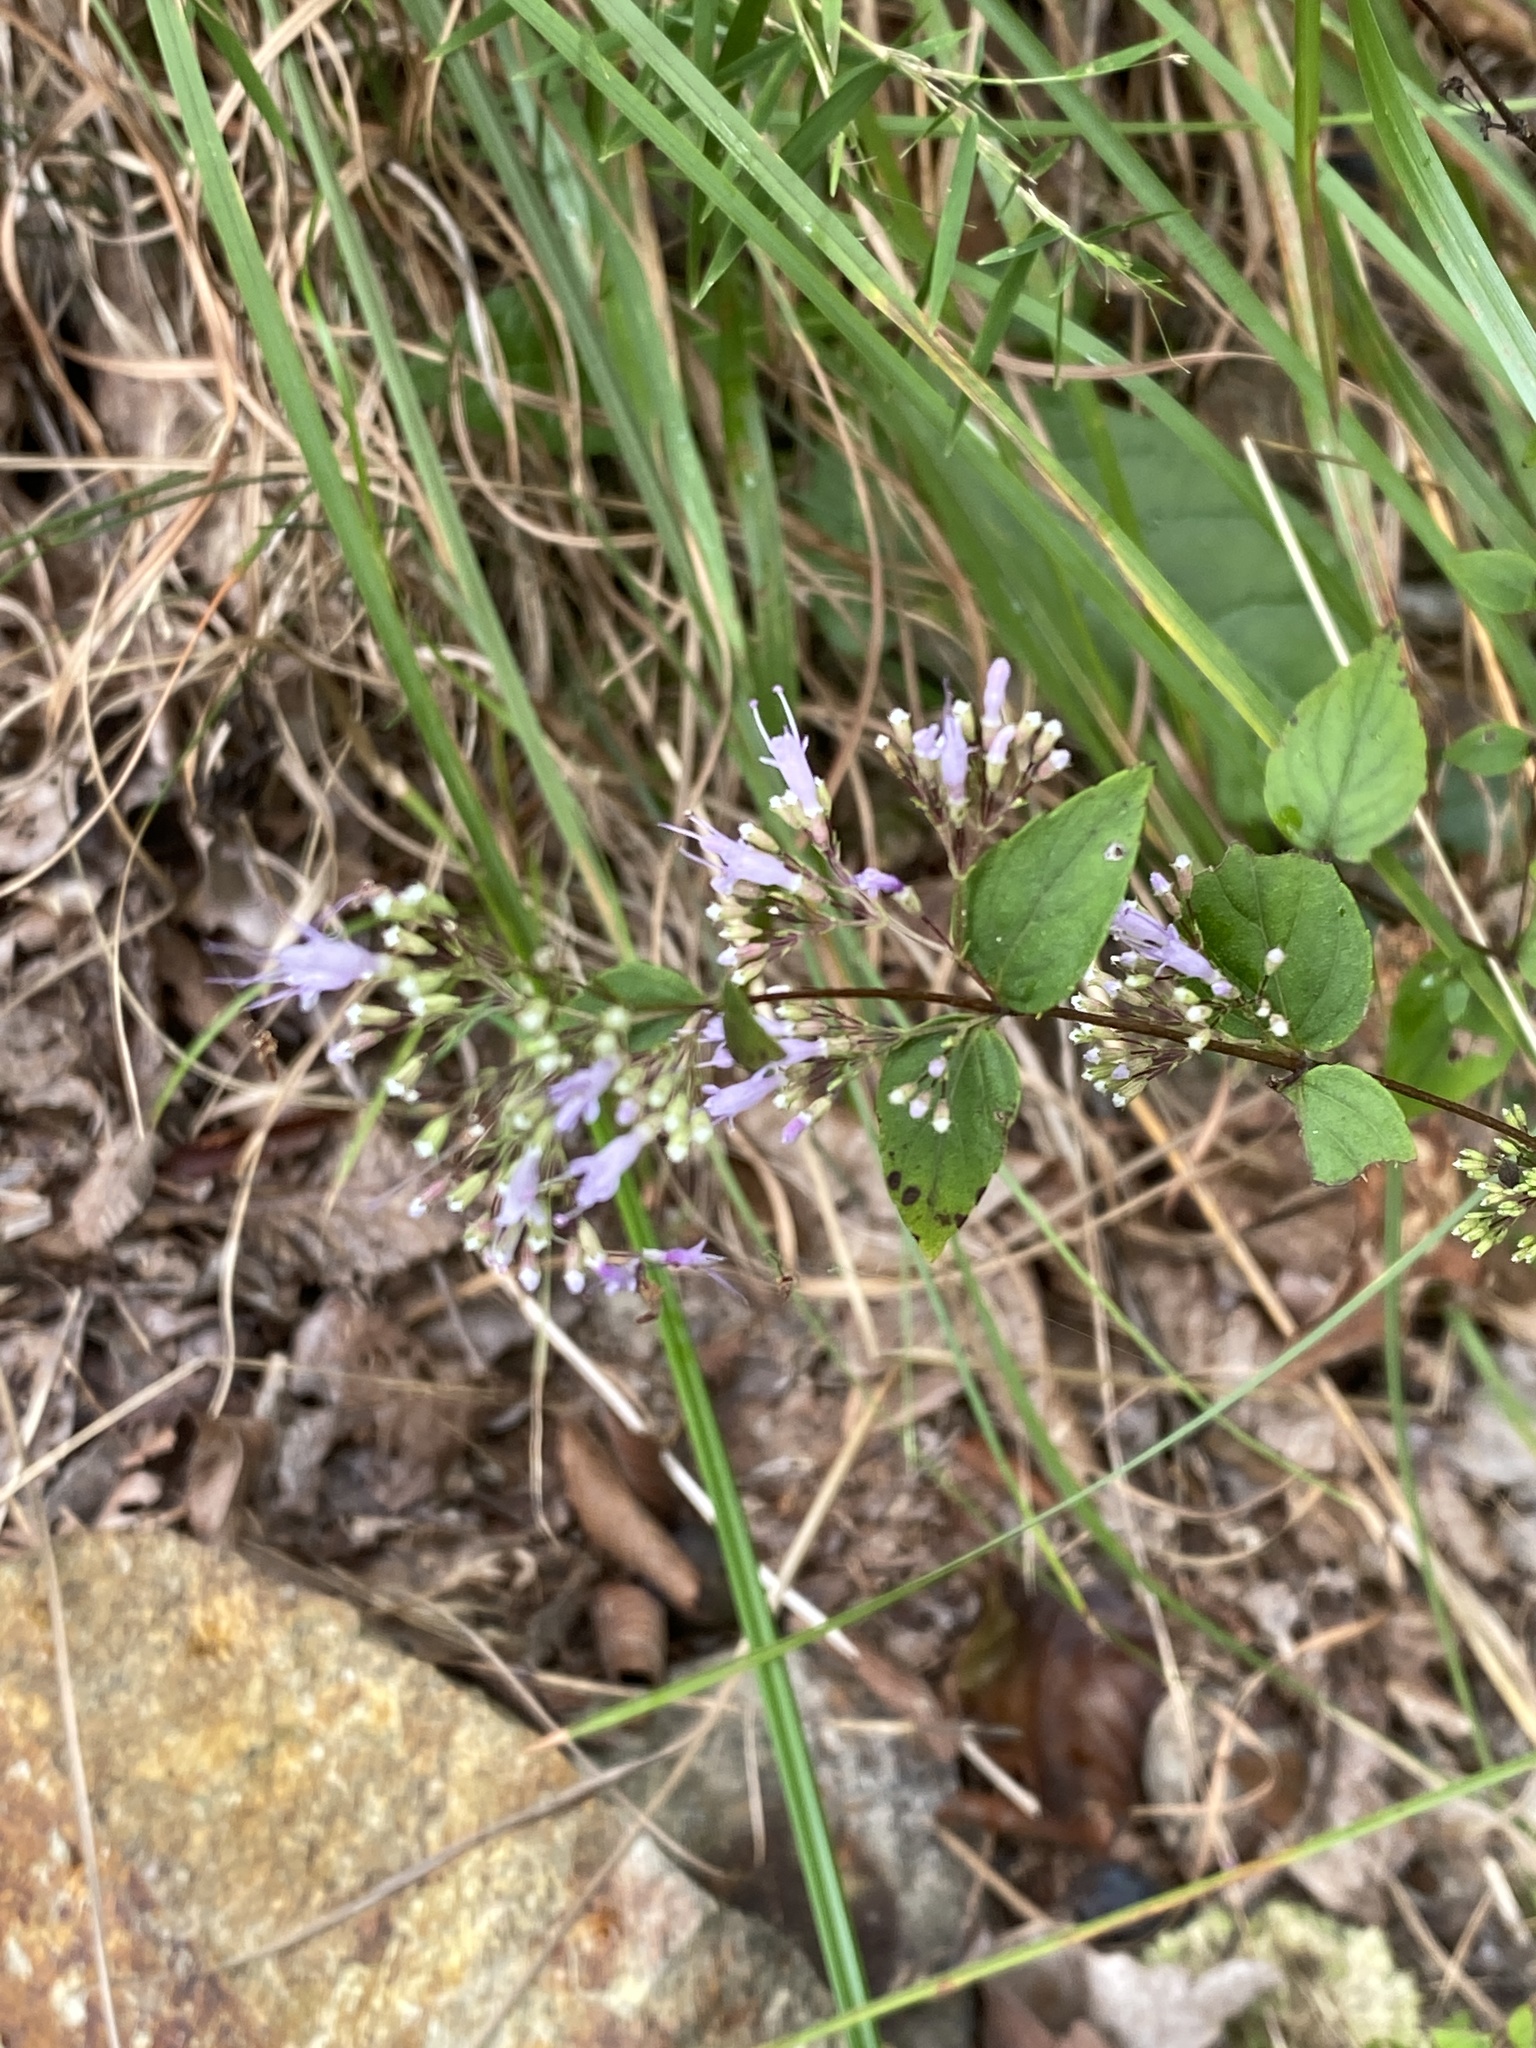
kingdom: Plantae
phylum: Tracheophyta
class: Magnoliopsida
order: Lamiales
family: Lamiaceae
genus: Cunila
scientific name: Cunila origanoides
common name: American dittany
